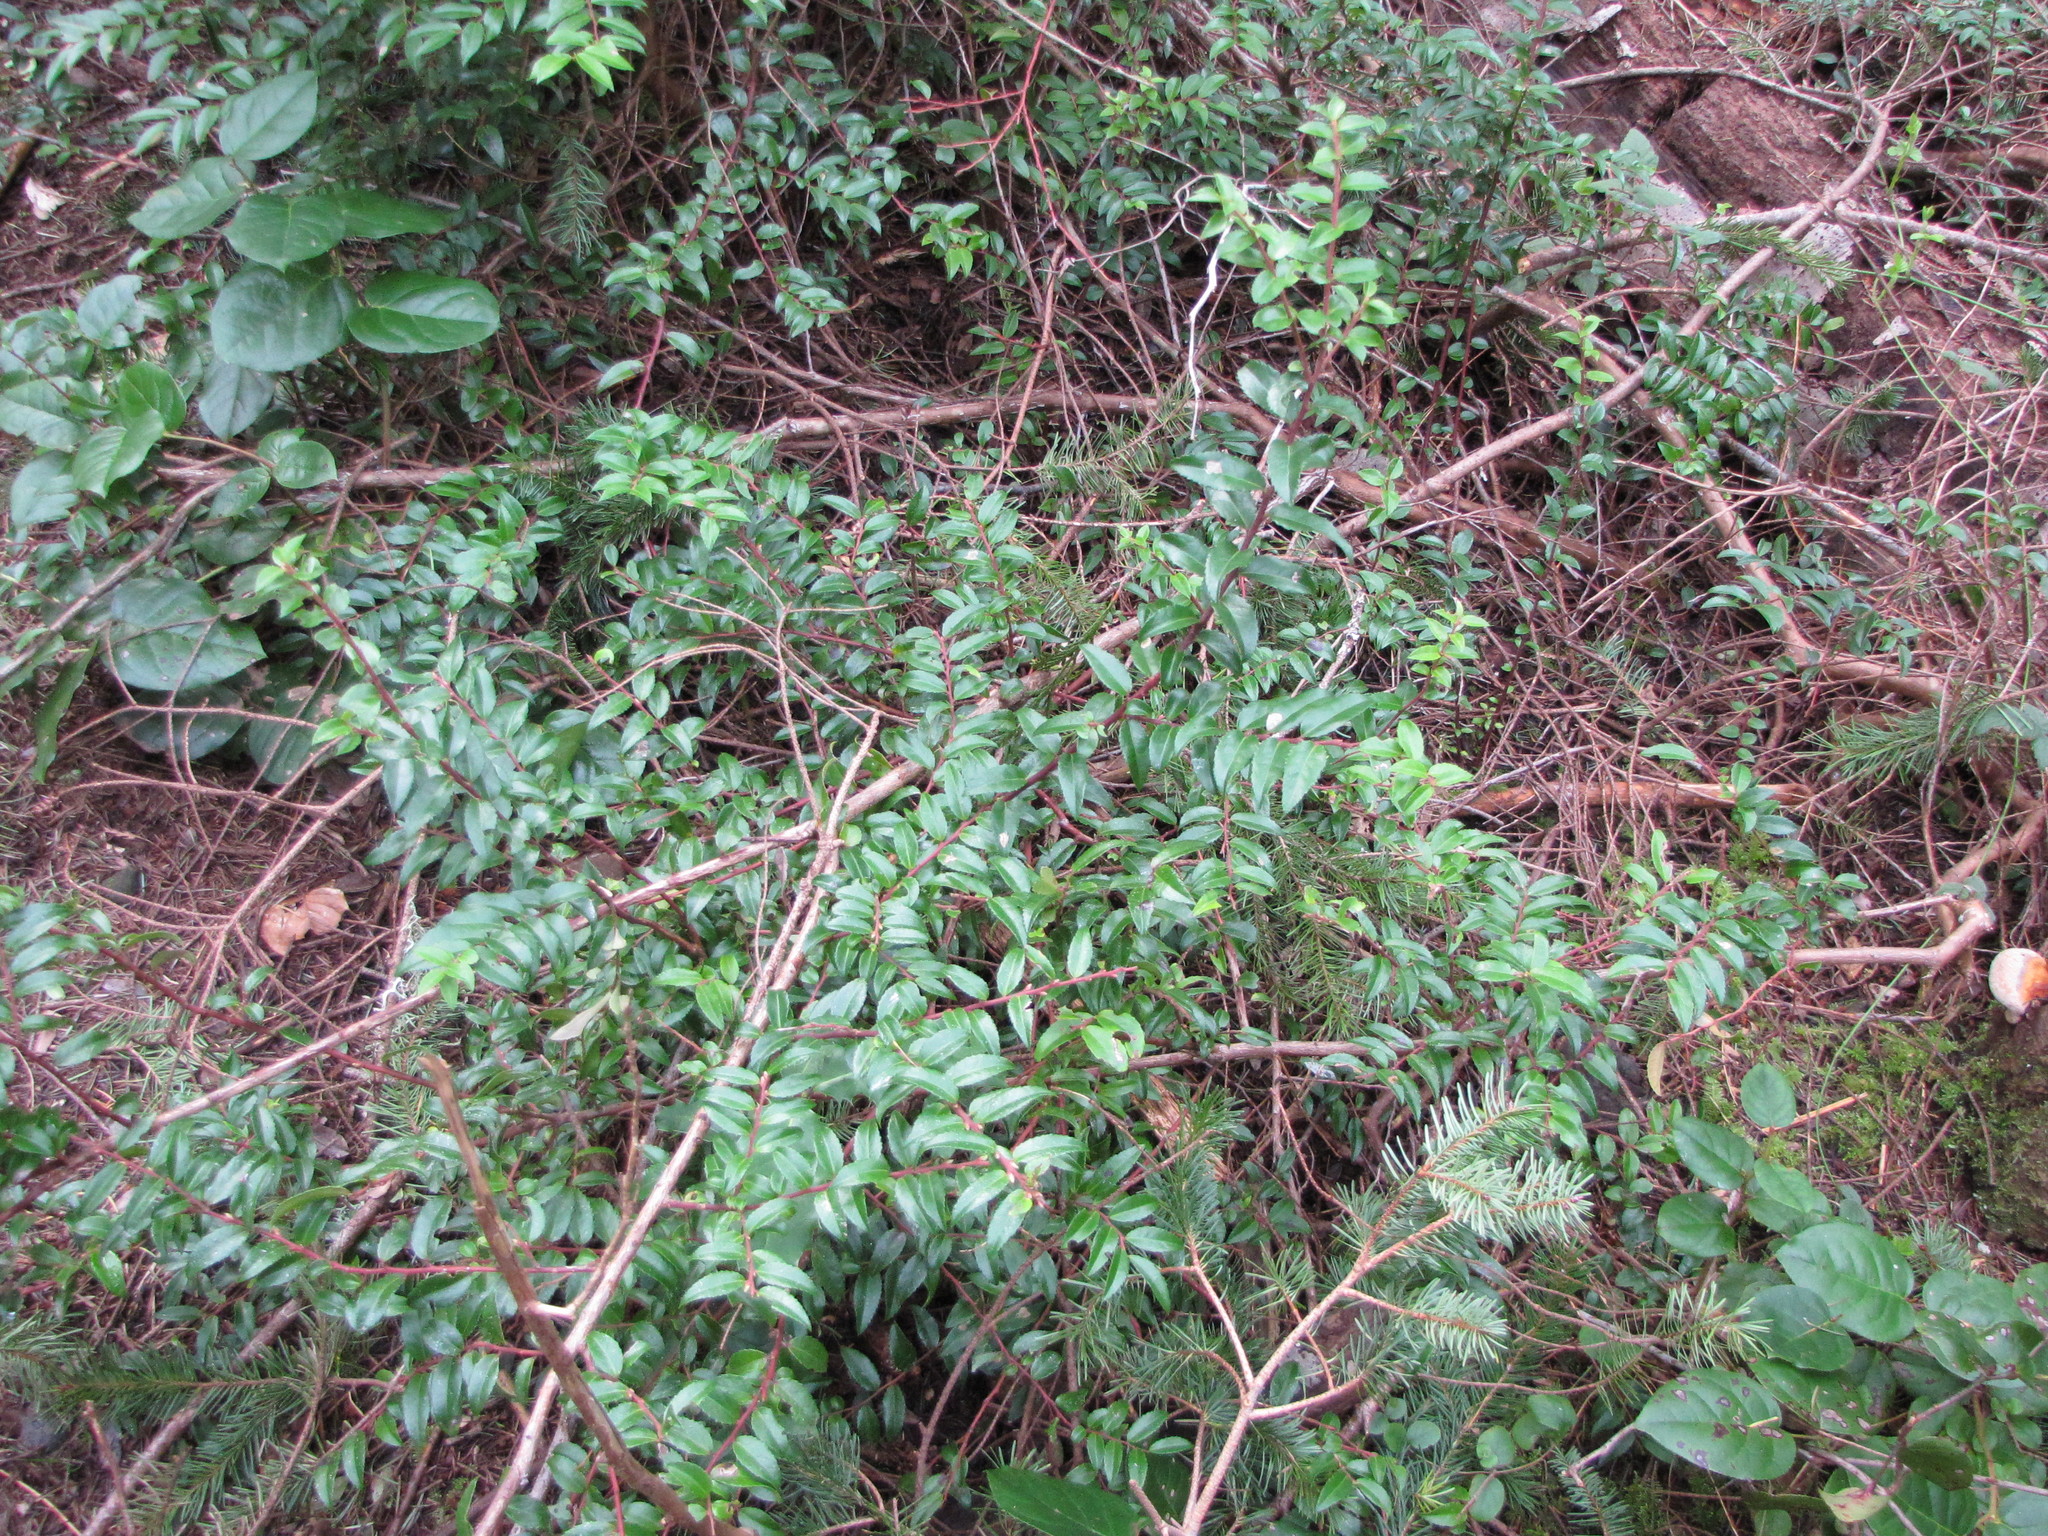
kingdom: Plantae
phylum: Tracheophyta
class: Magnoliopsida
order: Ericales
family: Ericaceae
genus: Vaccinium
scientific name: Vaccinium ovatum
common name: California-huckleberry
